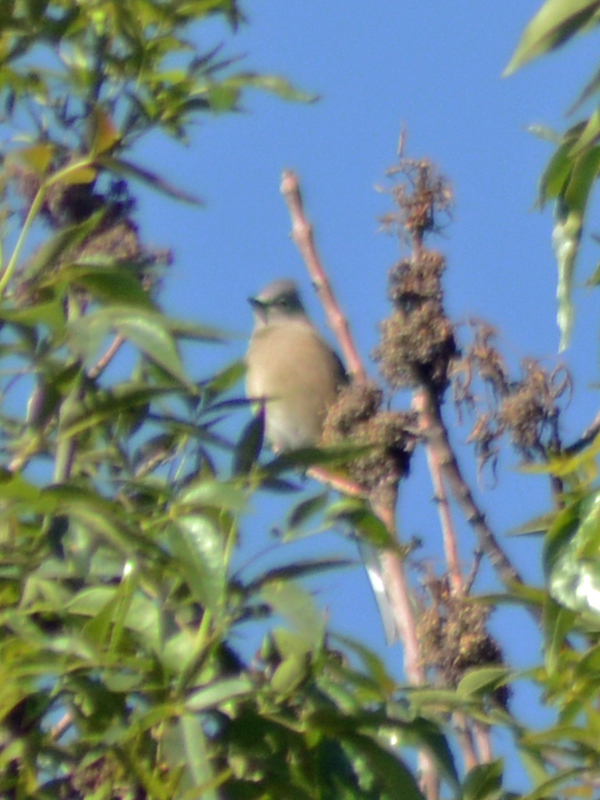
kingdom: Animalia
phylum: Chordata
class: Aves
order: Passeriformes
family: Ptilogonatidae
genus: Ptilogonys
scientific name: Ptilogonys cinereus
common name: Gray silky-flycatcher
